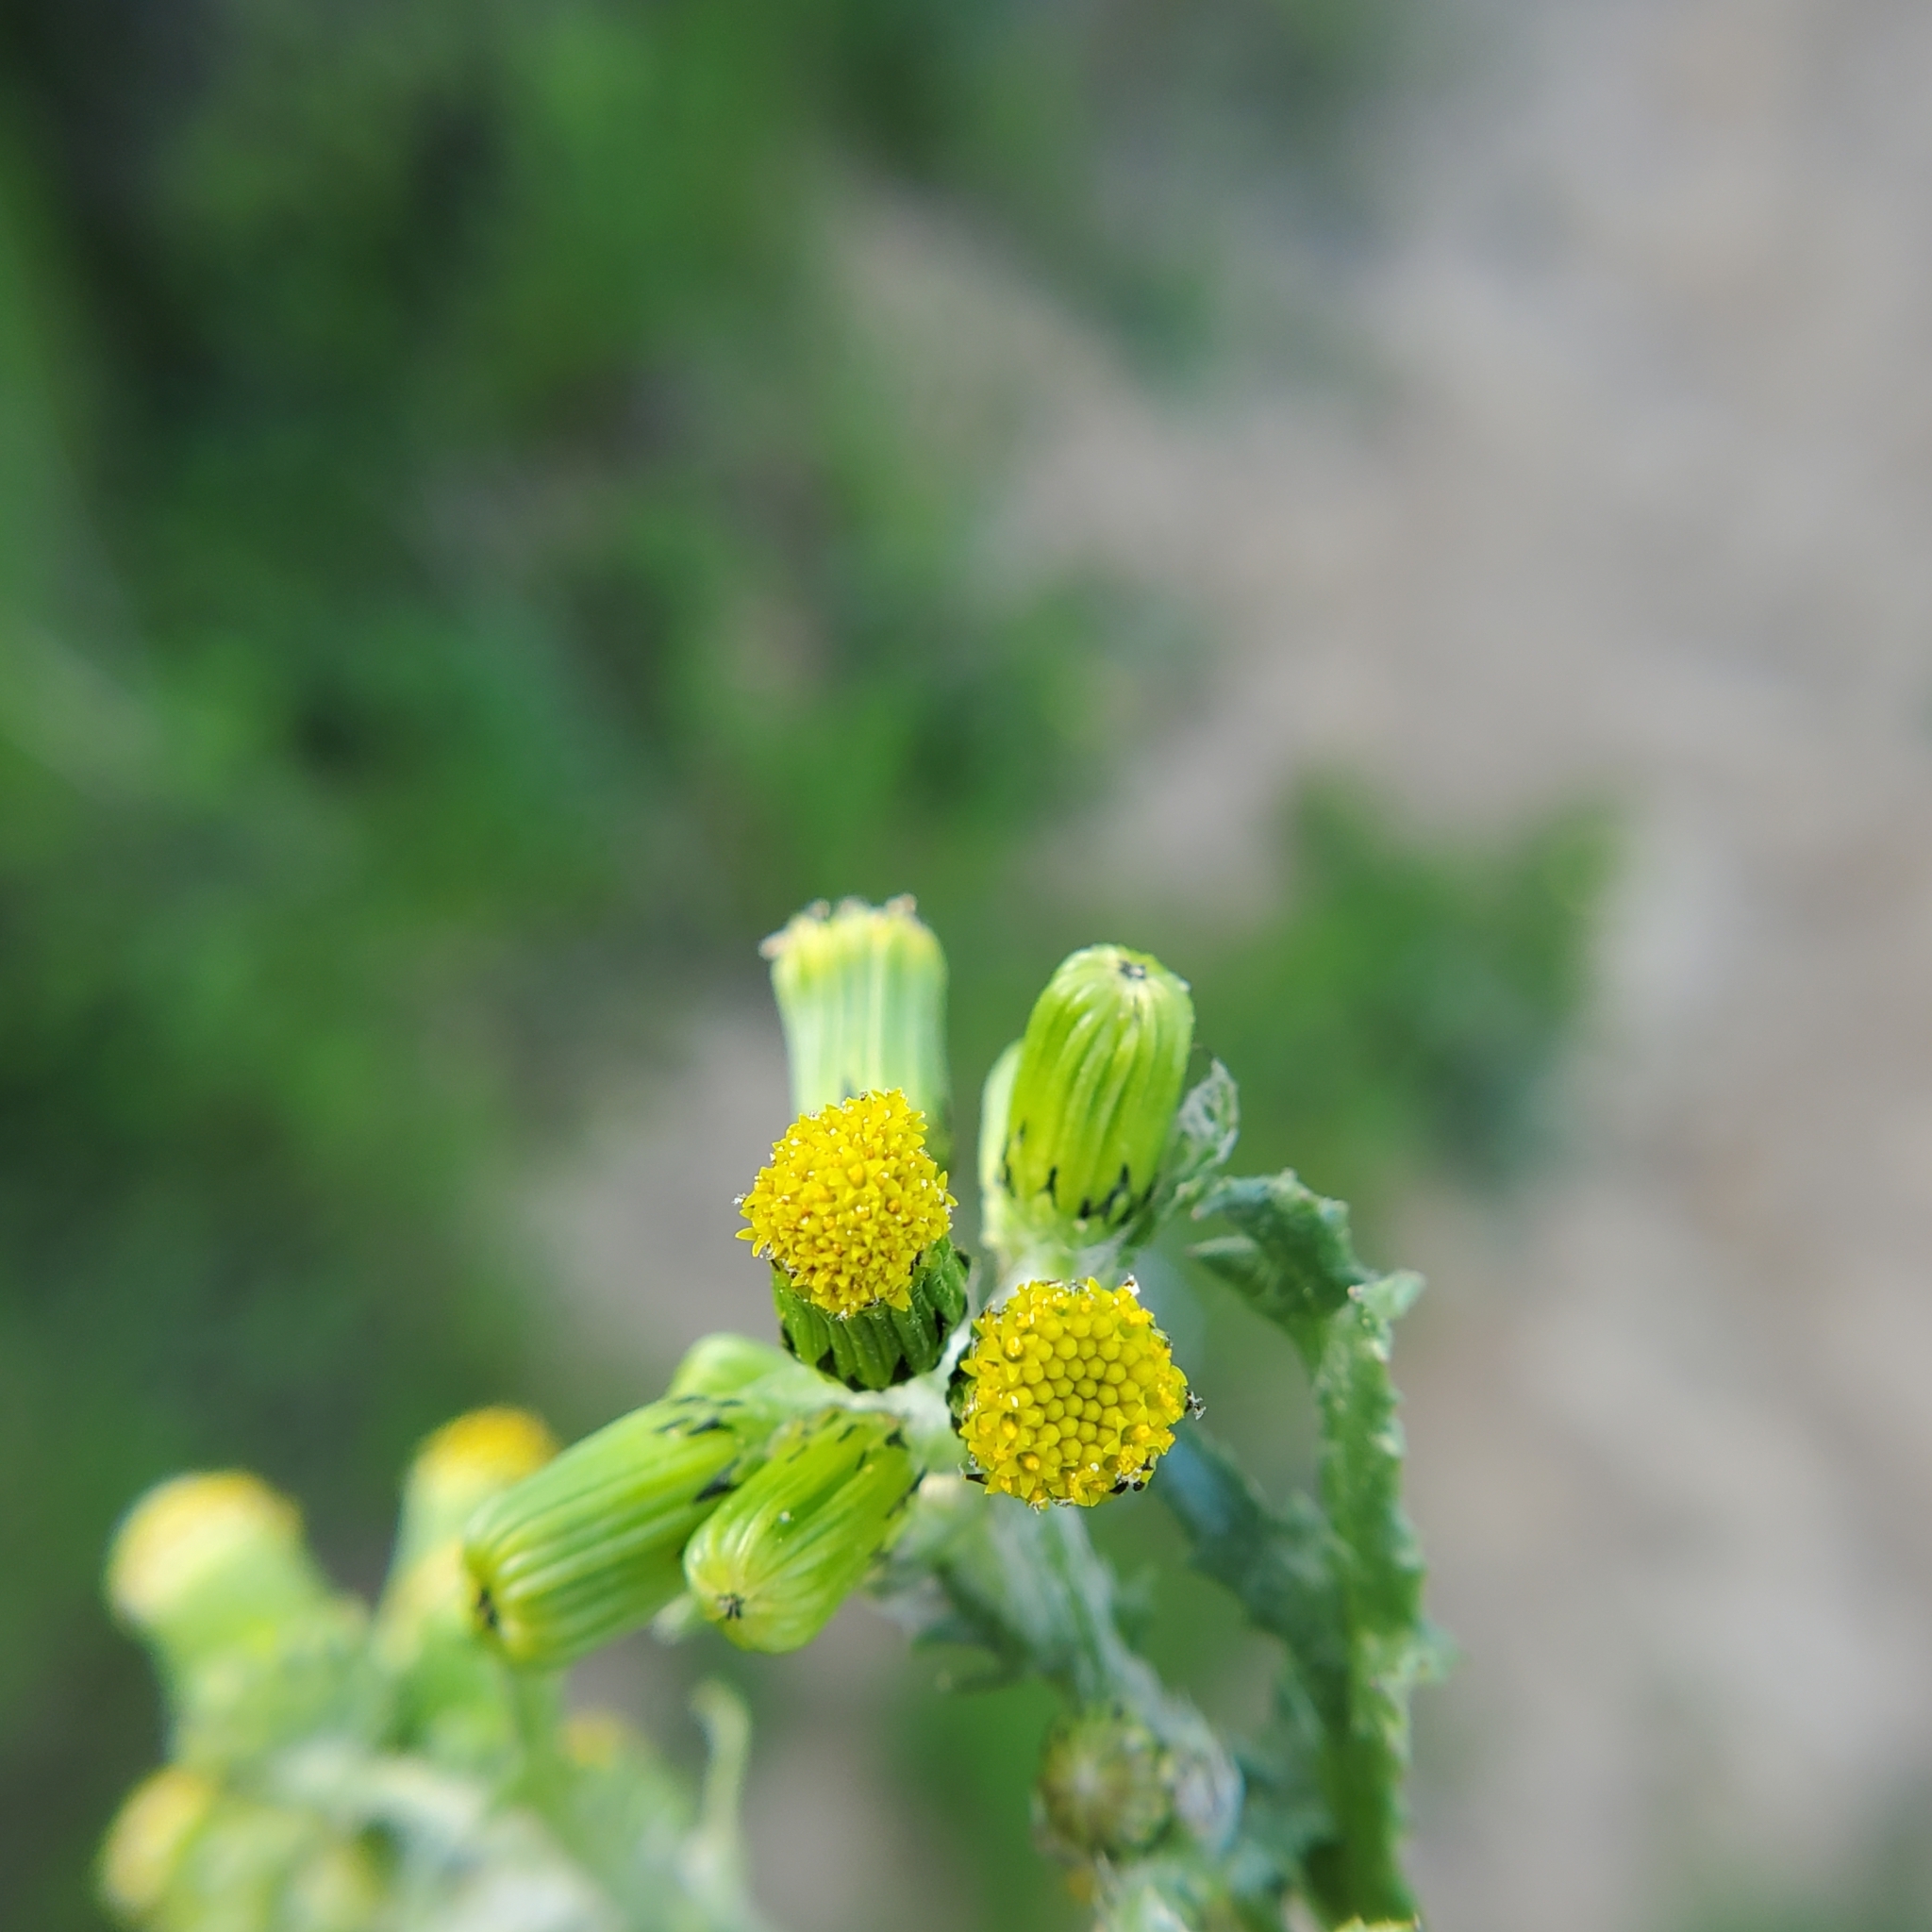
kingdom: Plantae
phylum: Tracheophyta
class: Magnoliopsida
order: Asterales
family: Asteraceae
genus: Senecio
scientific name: Senecio vulgaris
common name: Old-man-in-the-spring
